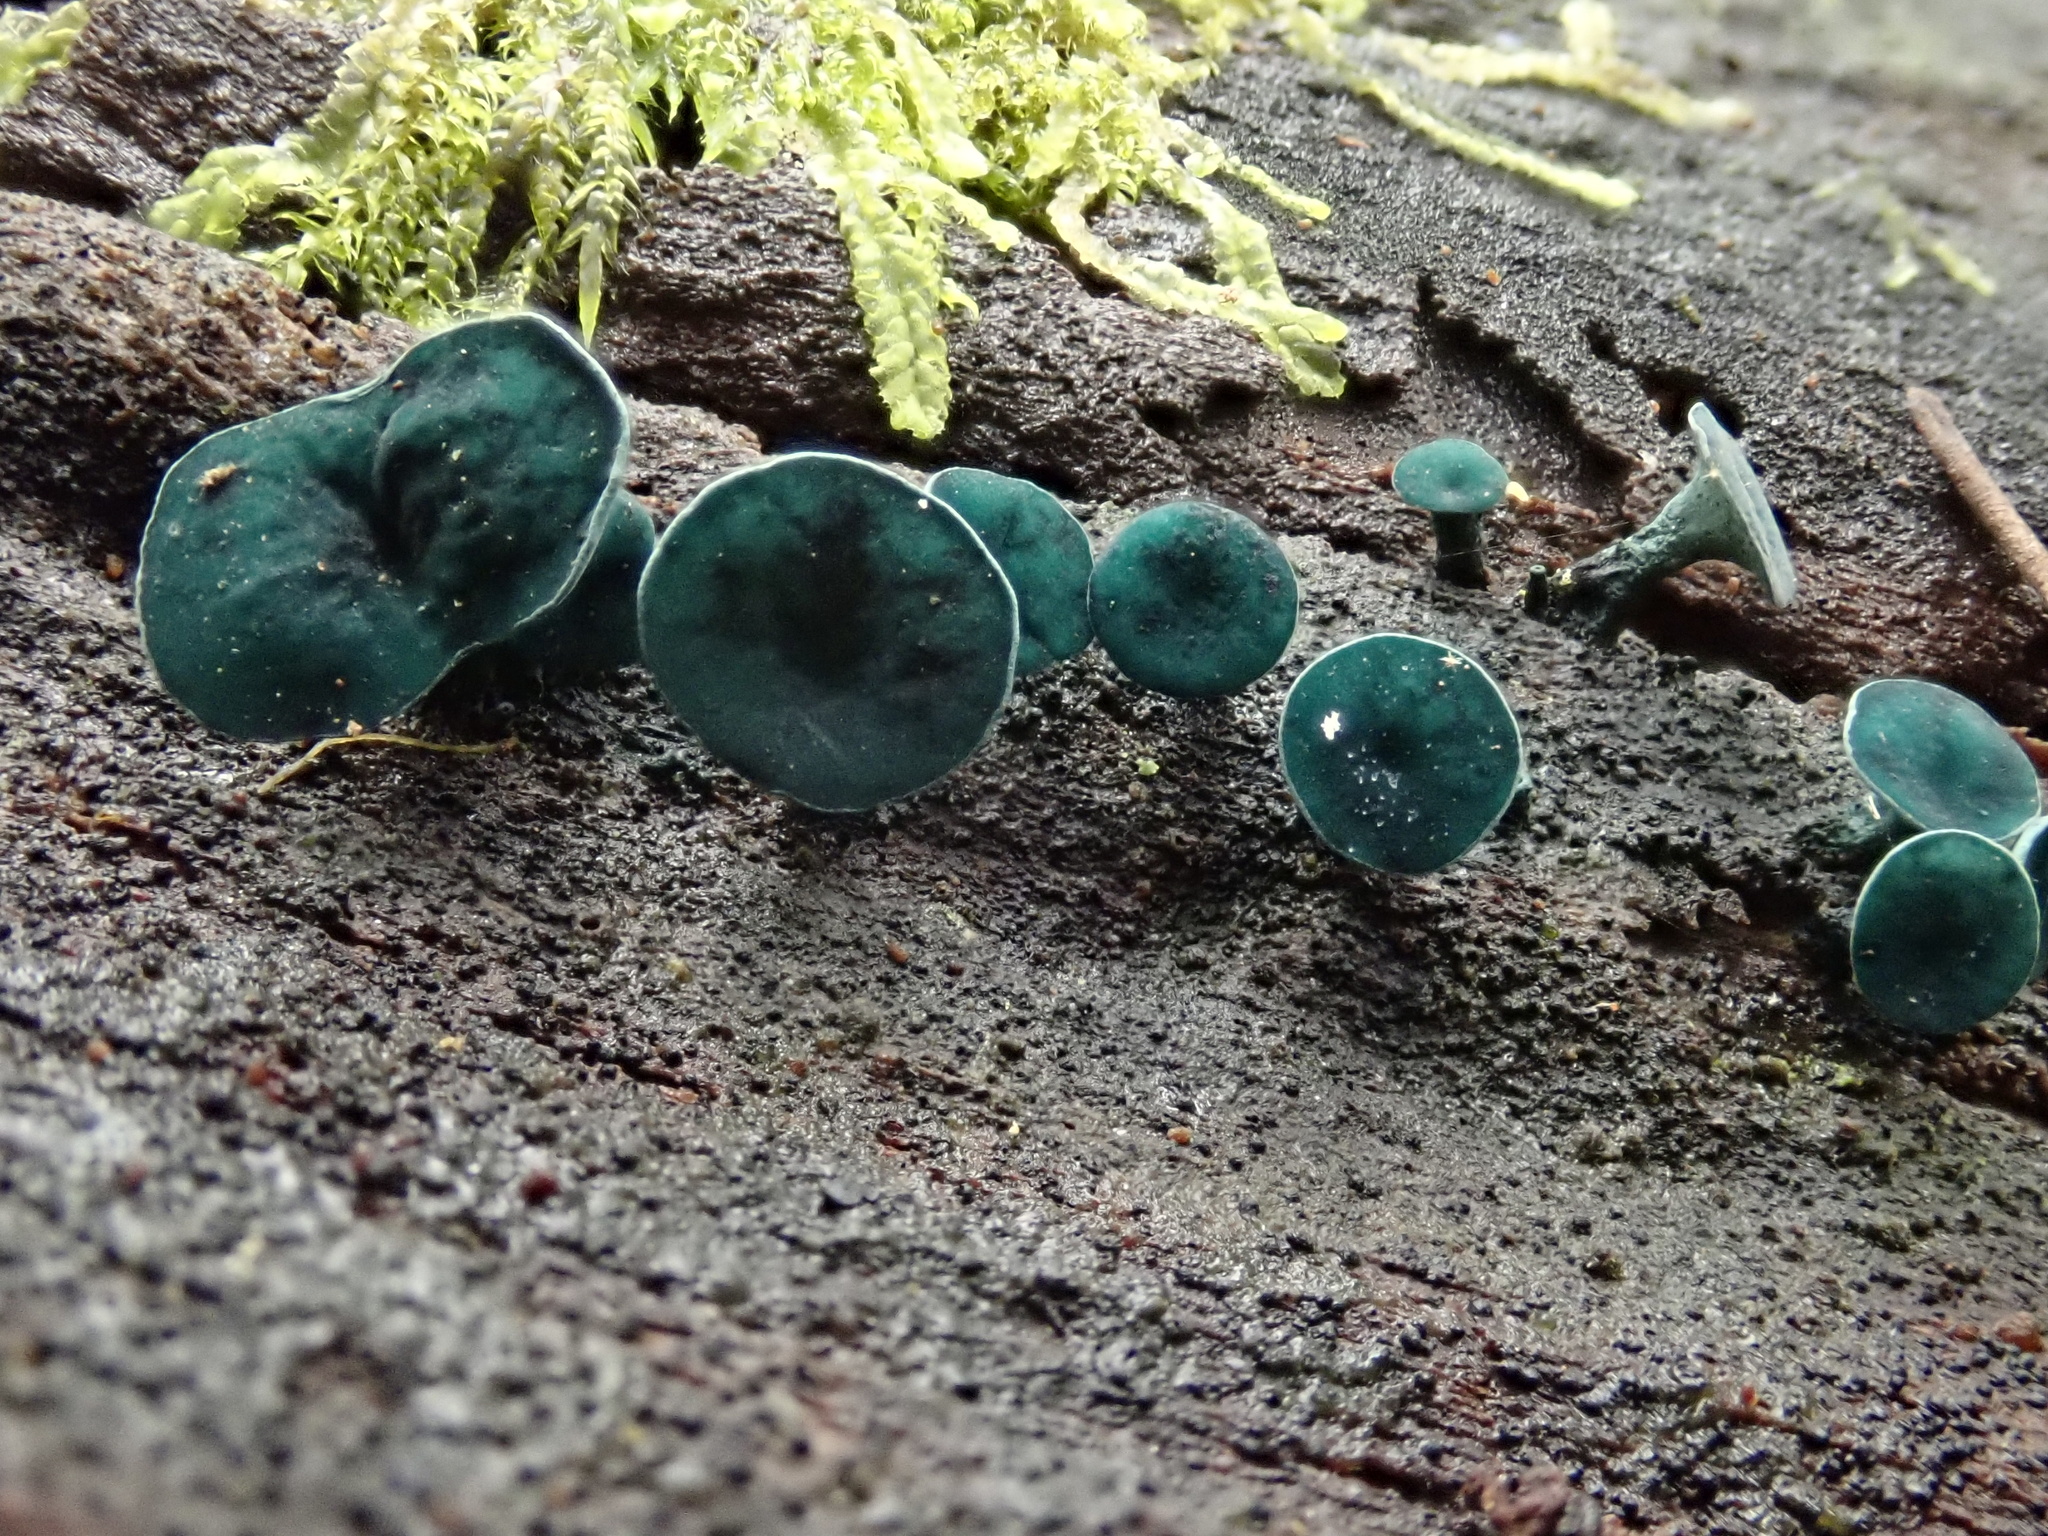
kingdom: Fungi
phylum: Ascomycota
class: Leotiomycetes
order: Helotiales
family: Chlorociboriaceae
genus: Chlorociboria
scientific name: Chlorociboria
